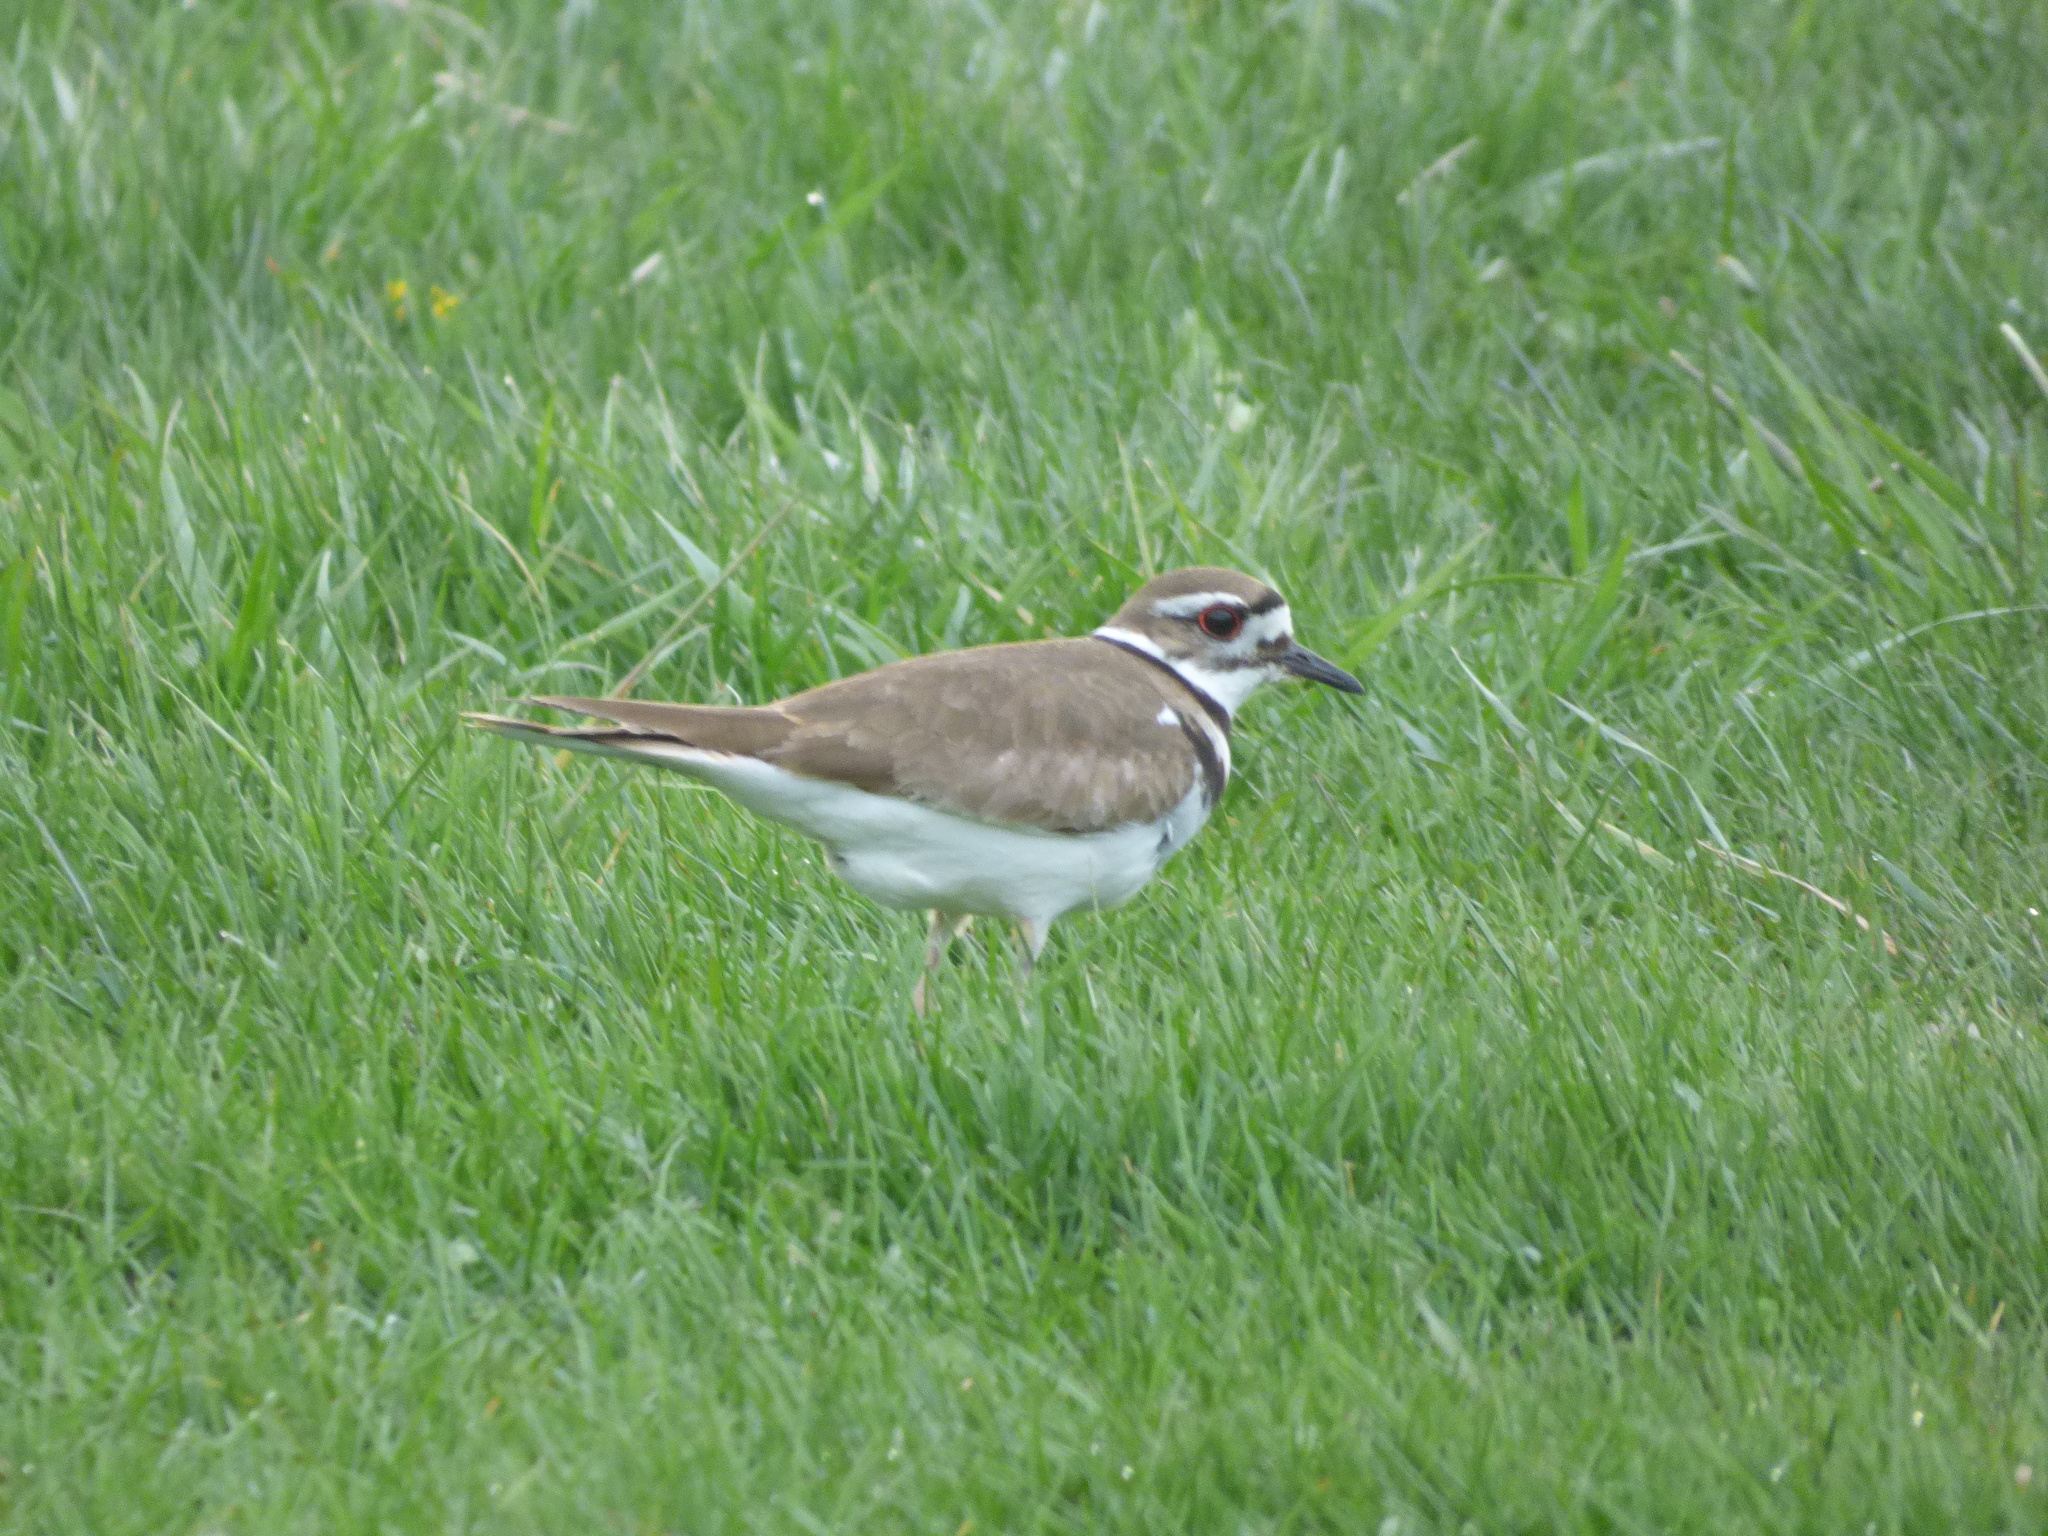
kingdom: Animalia
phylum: Chordata
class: Aves
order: Charadriiformes
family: Charadriidae
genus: Charadrius
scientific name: Charadrius vociferus
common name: Killdeer
